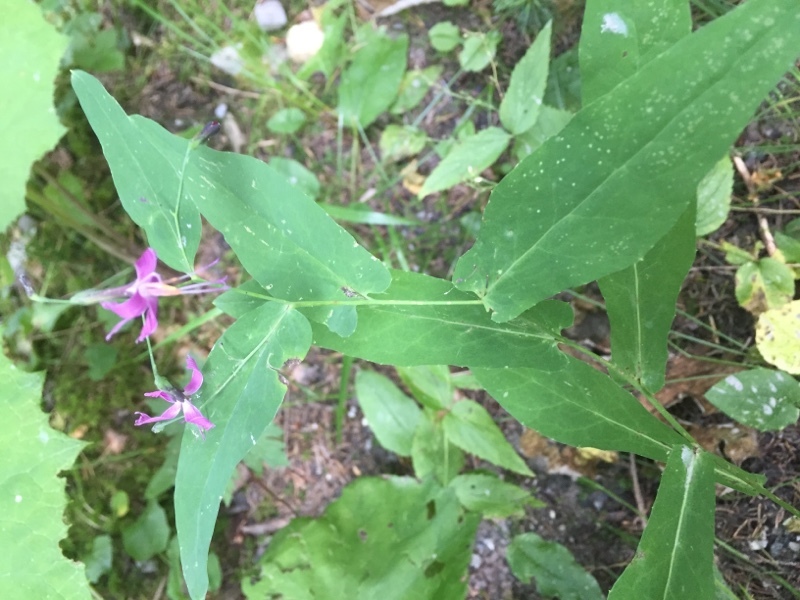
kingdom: Plantae
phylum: Tracheophyta
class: Magnoliopsida
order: Asterales
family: Asteraceae
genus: Prenanthes
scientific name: Prenanthes purpurea
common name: Purple lettuce
